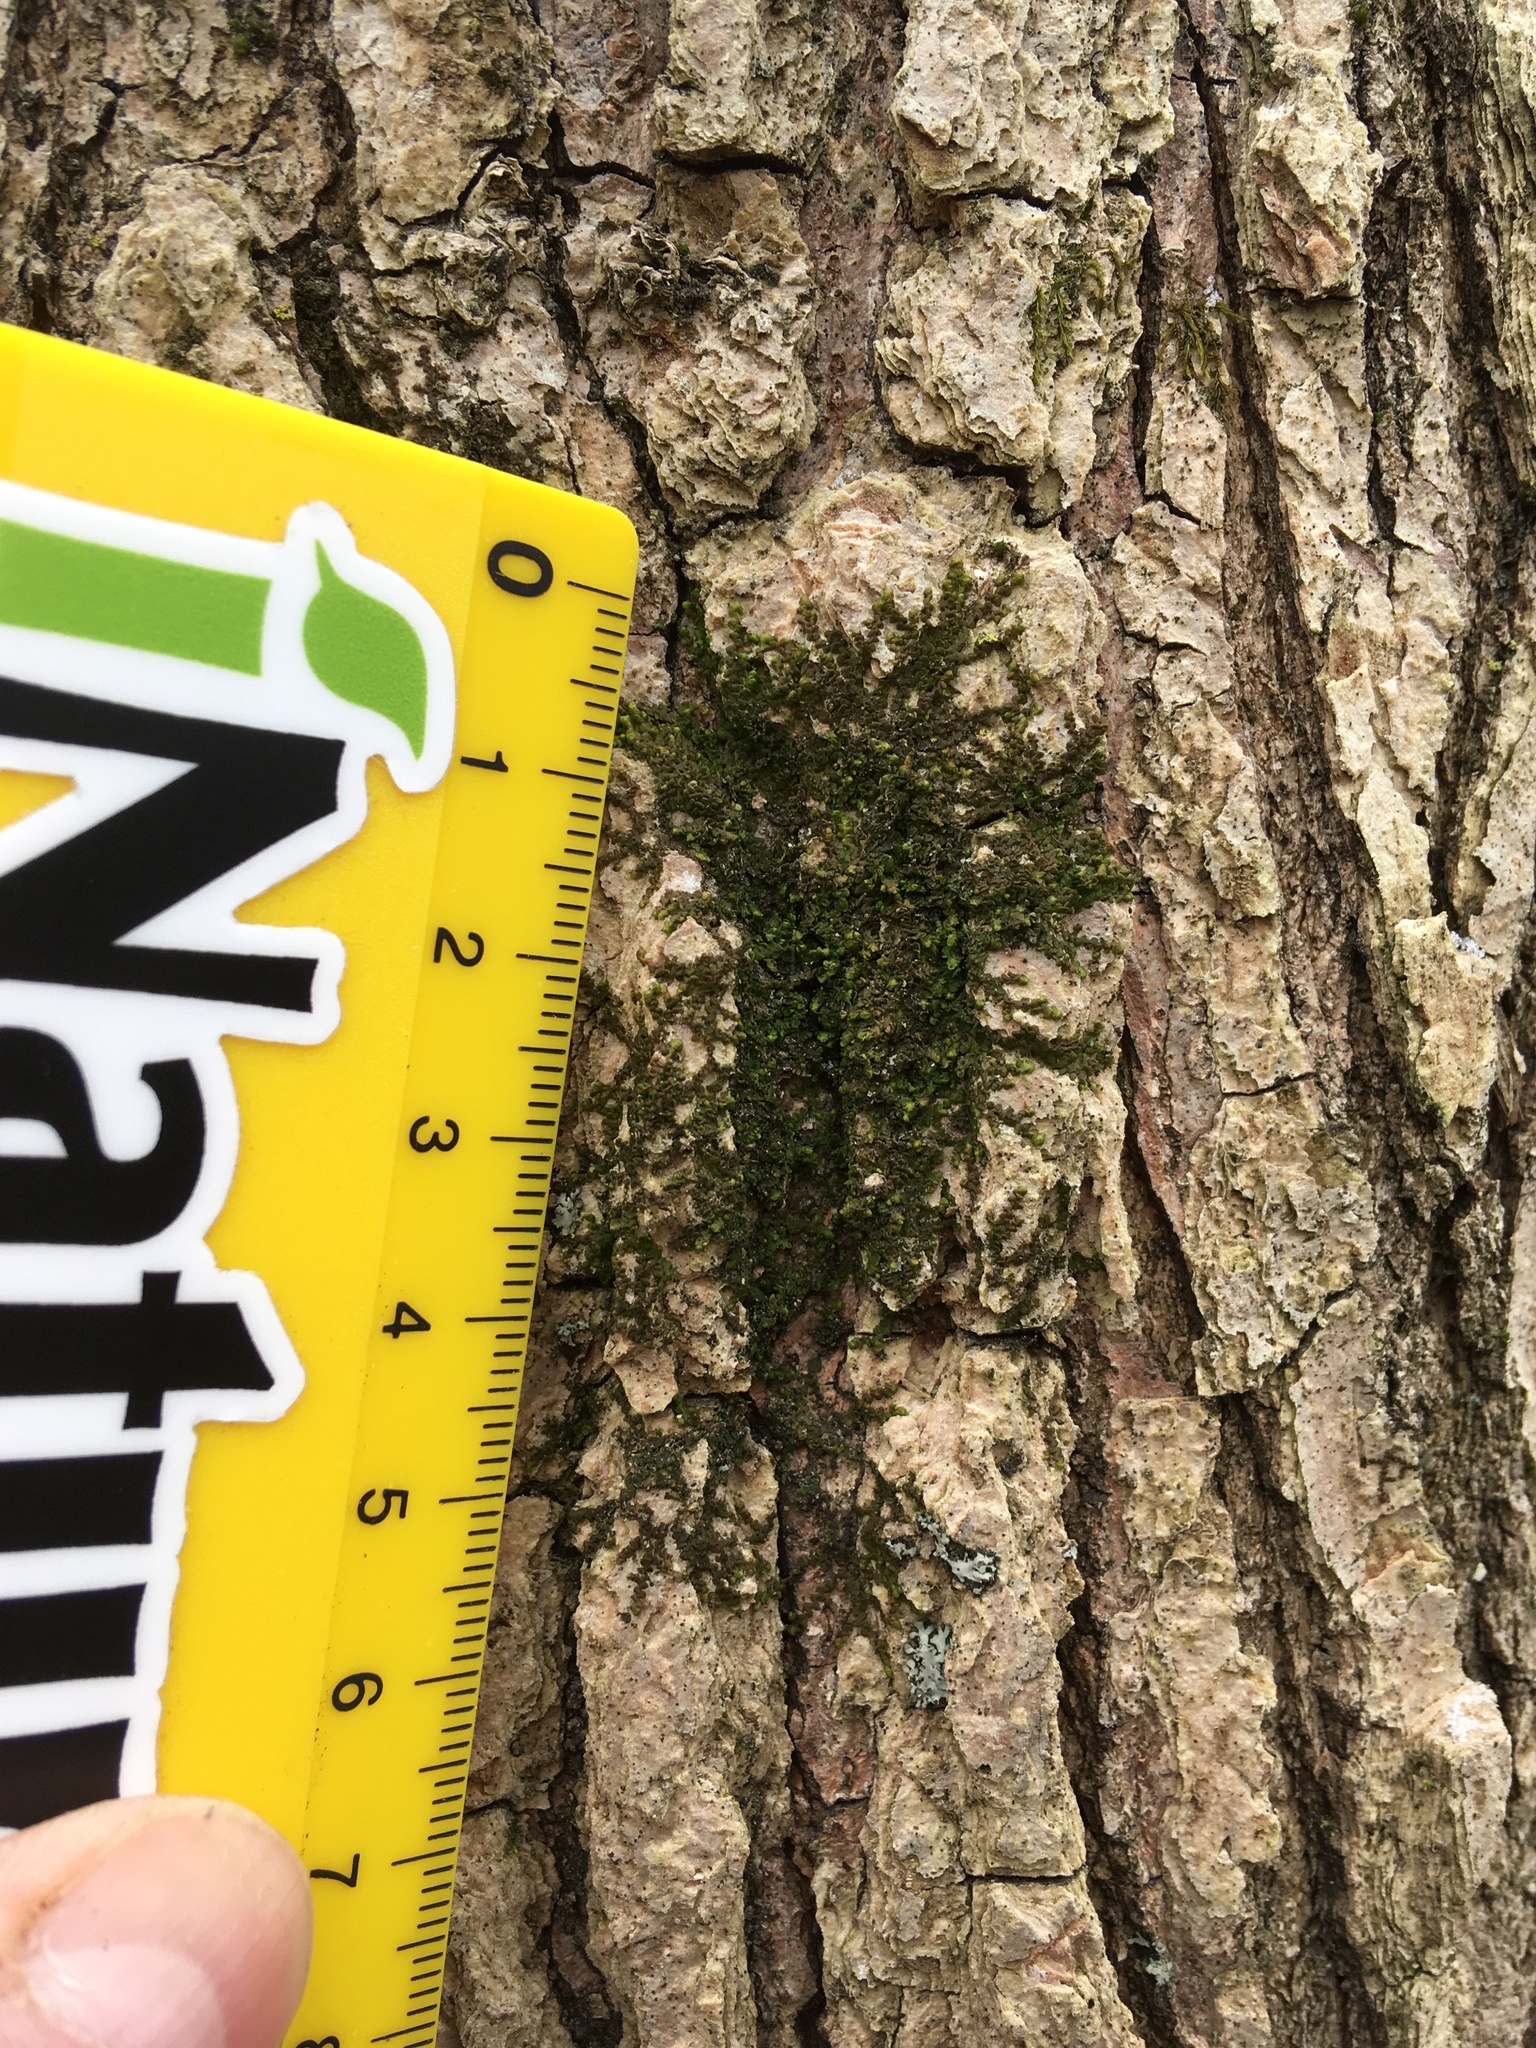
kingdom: Plantae
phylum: Marchantiophyta
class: Jungermanniopsida
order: Porellales
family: Frullaniaceae
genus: Frullania
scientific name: Frullania eboracensis
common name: New york scalewort
